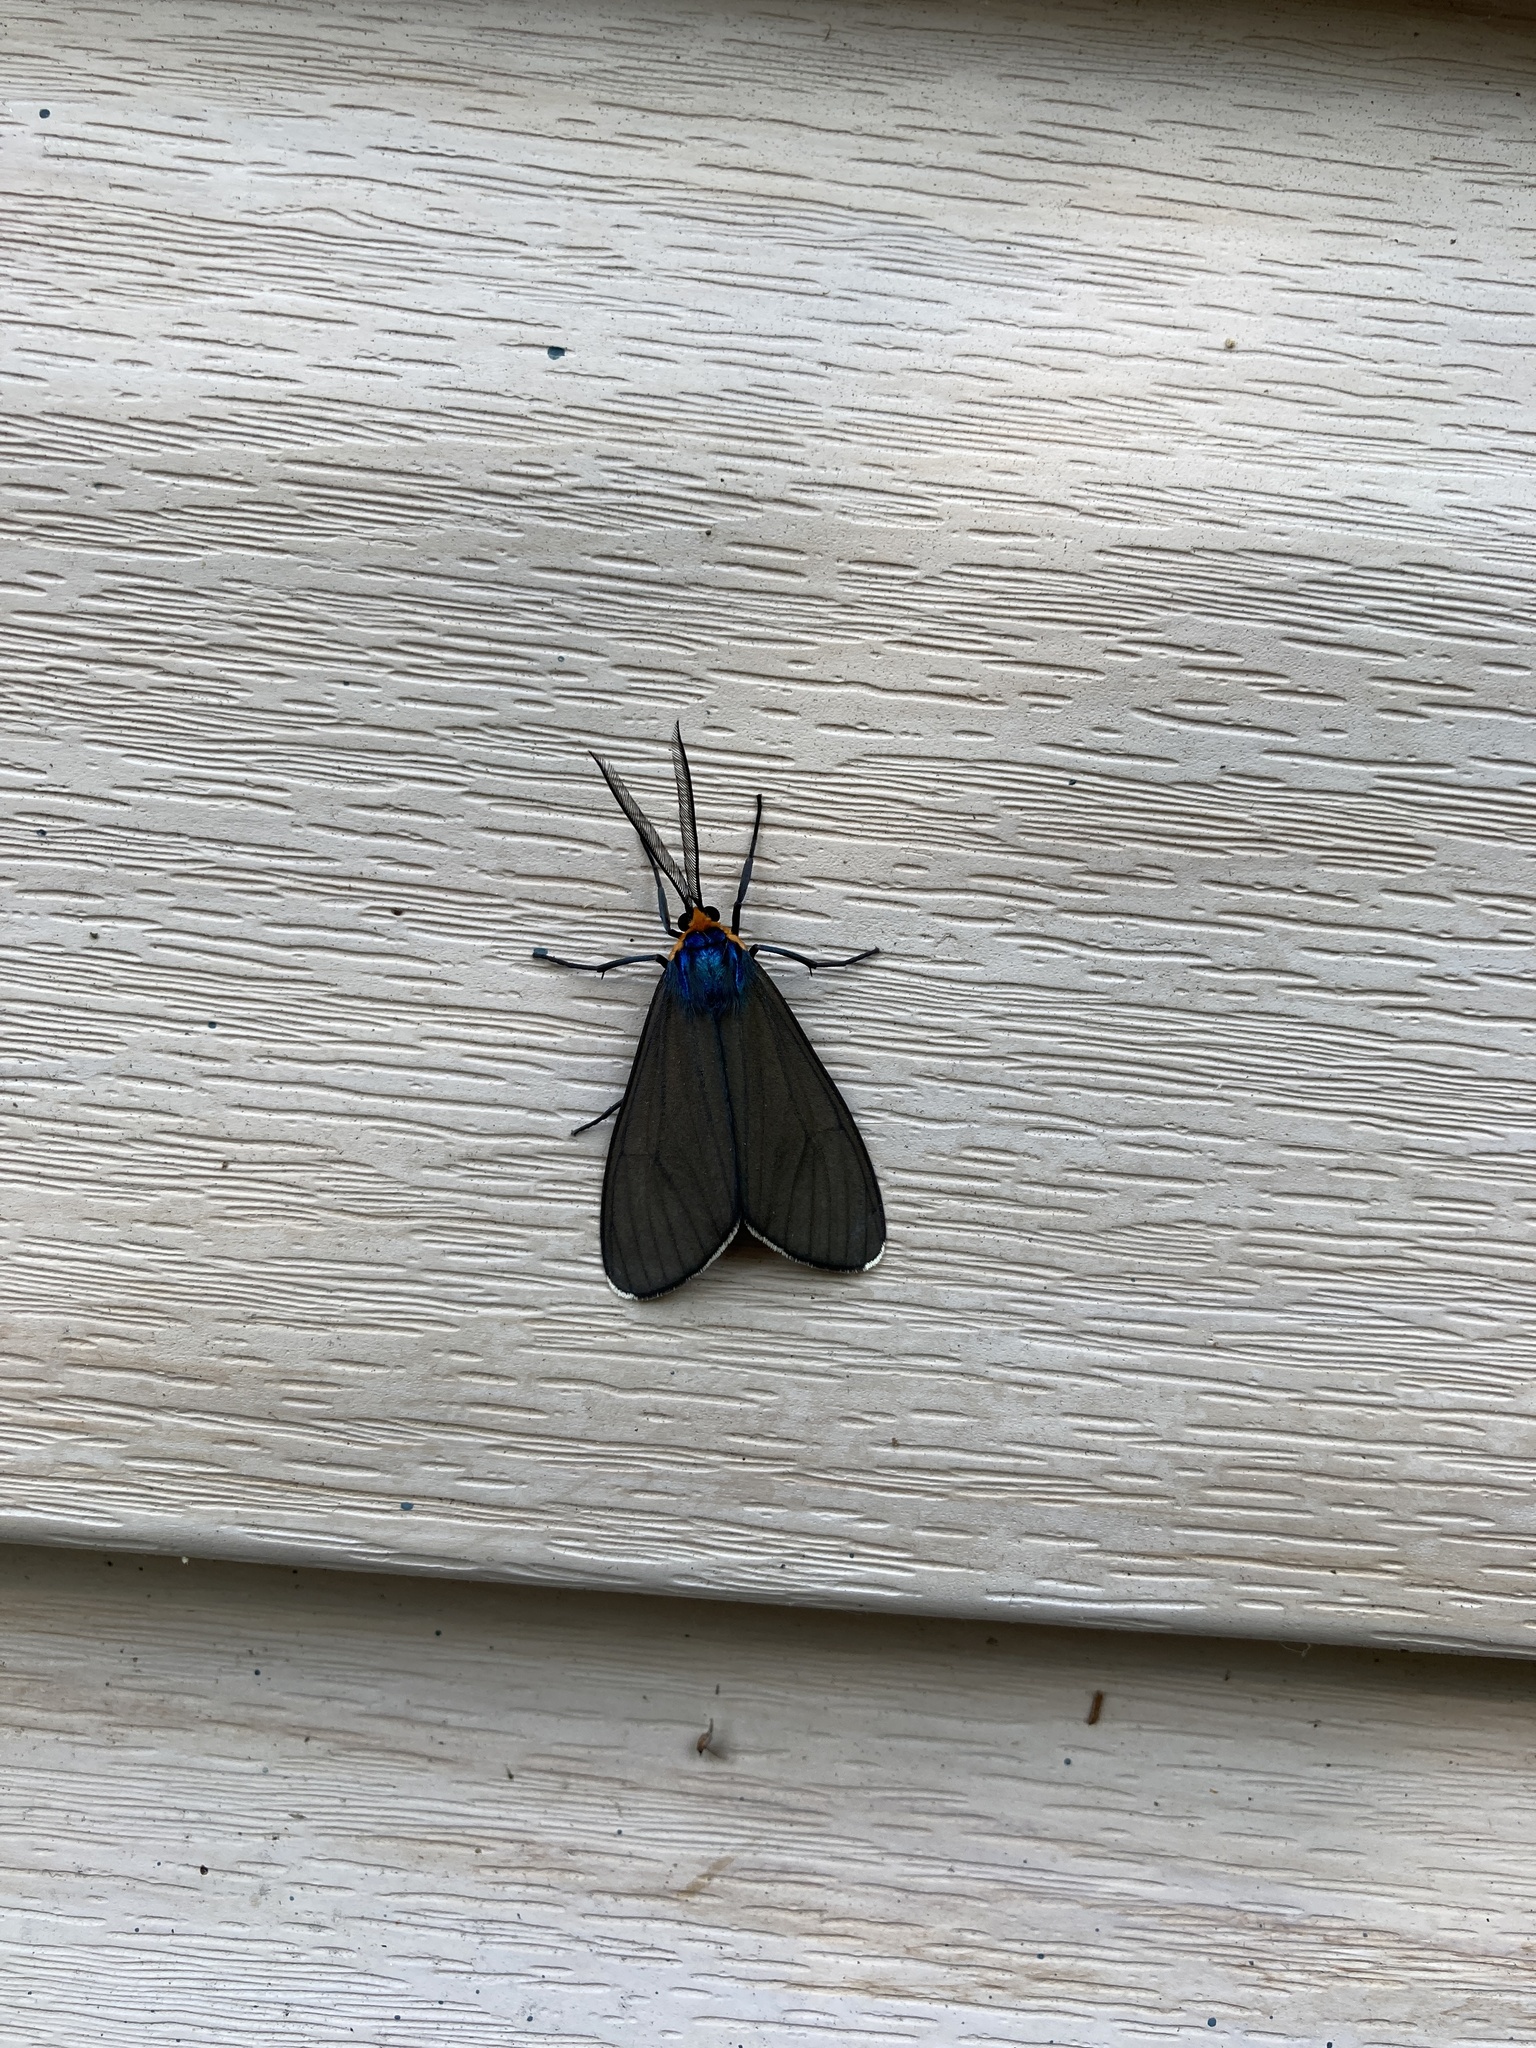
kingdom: Animalia
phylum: Arthropoda
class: Insecta
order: Lepidoptera
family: Erebidae
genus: Ctenucha
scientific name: Ctenucha virginica
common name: Virginia ctenucha moth
